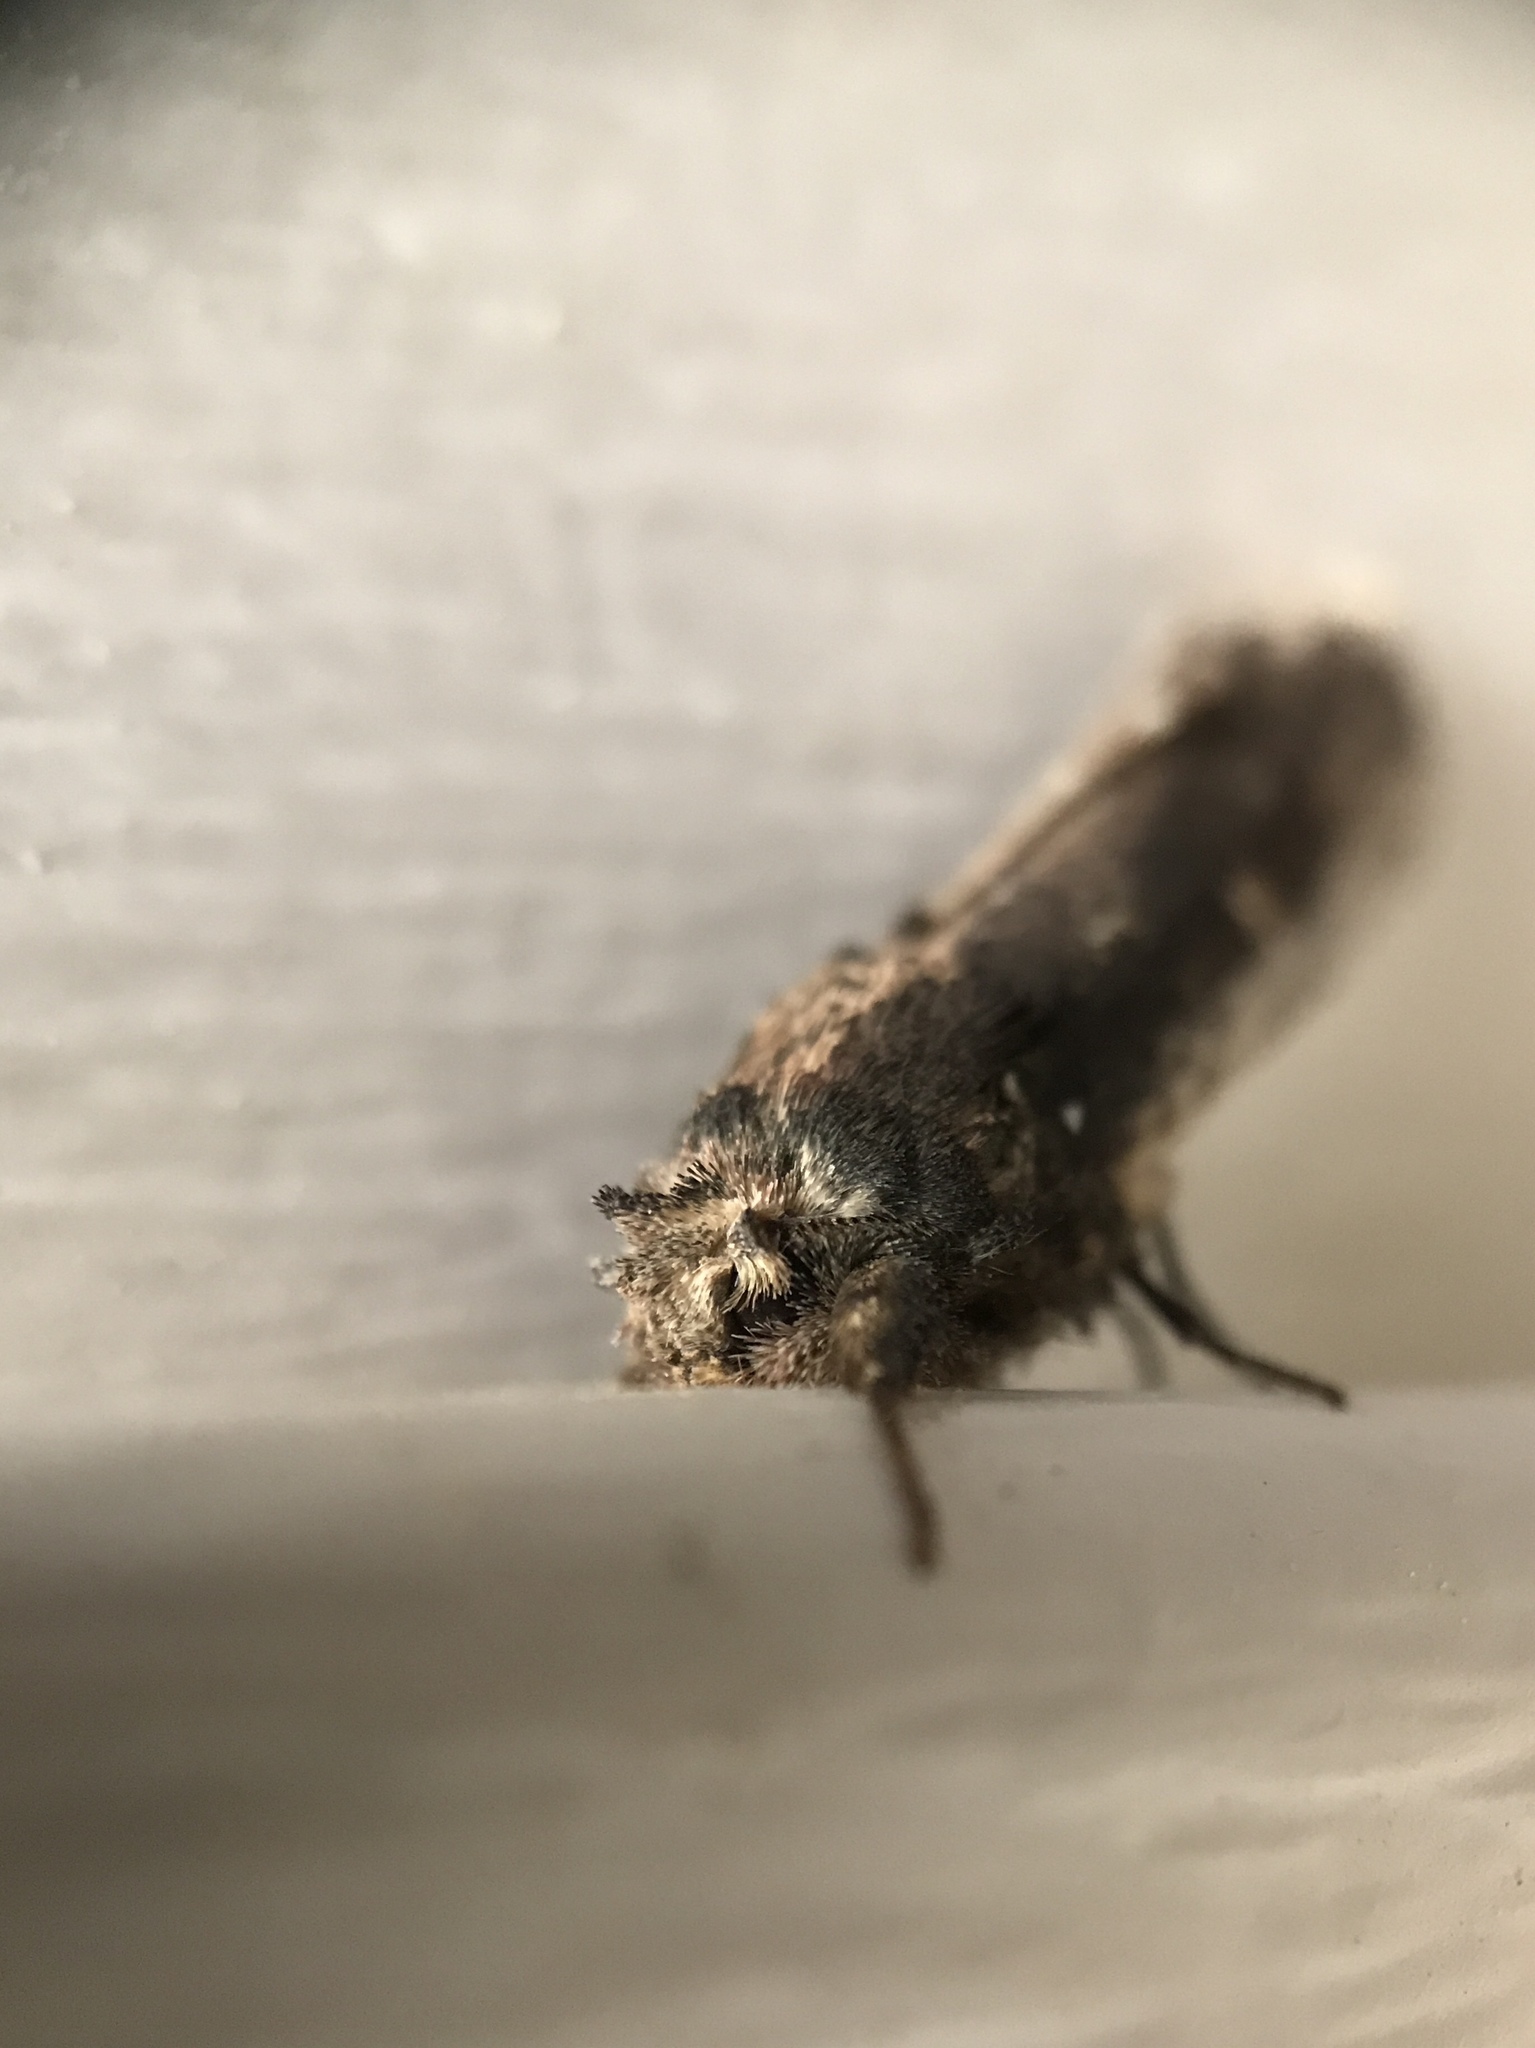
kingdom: Animalia
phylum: Arthropoda
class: Insecta
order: Lepidoptera
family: Notodontidae
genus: Schizura
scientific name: Schizura ipomaeae
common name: Morning-glory prominent
